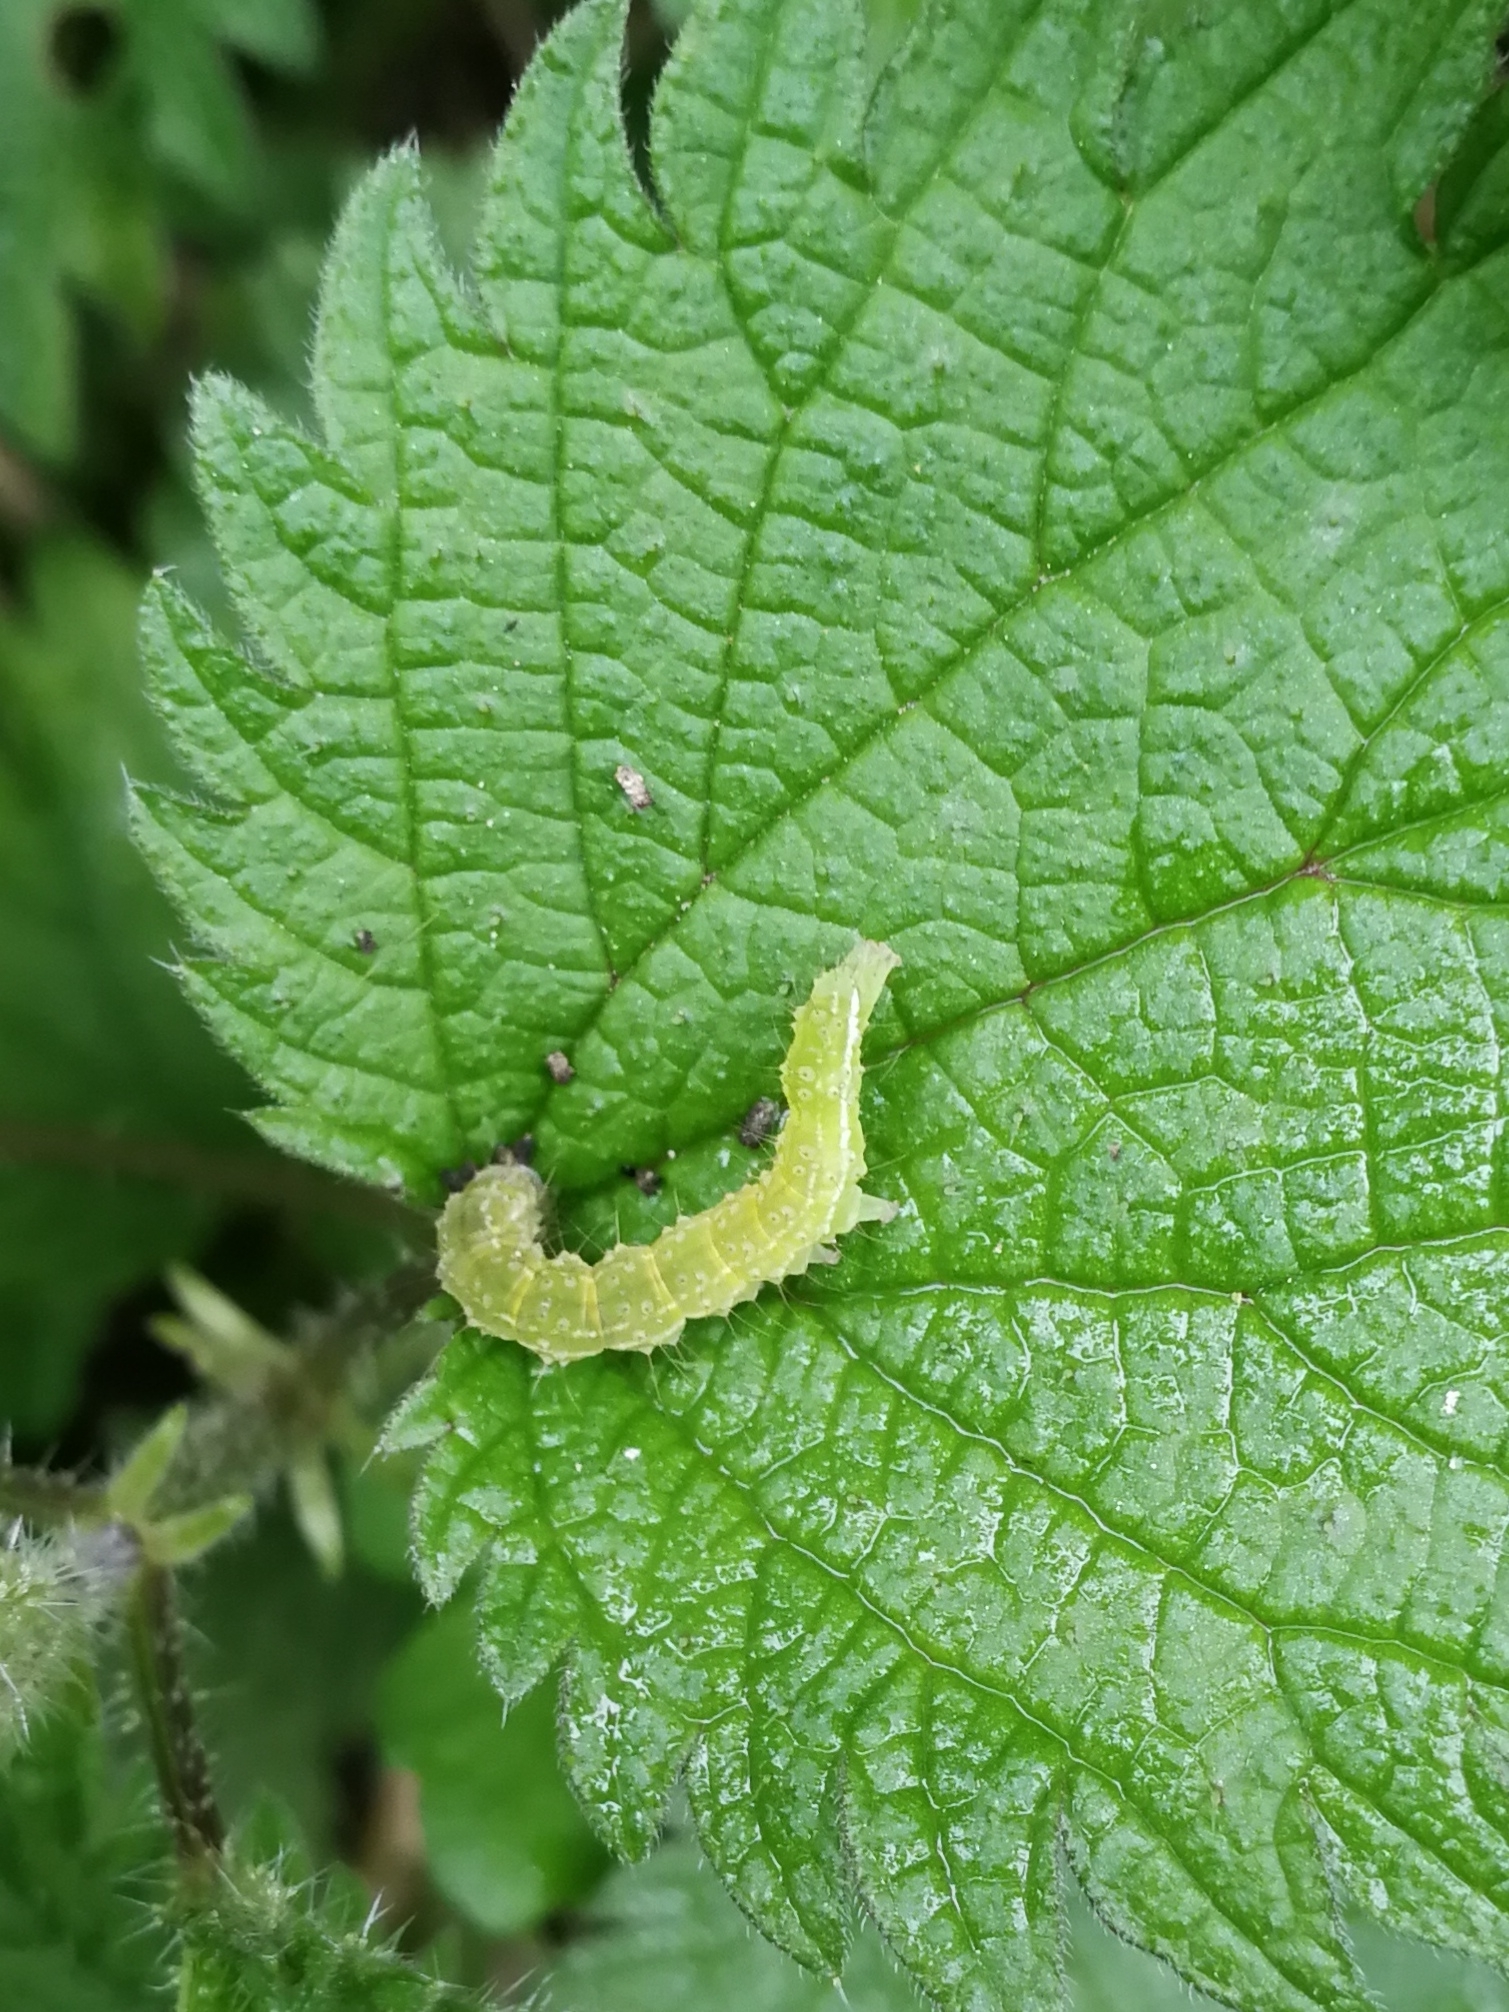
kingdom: Animalia
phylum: Arthropoda
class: Insecta
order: Lepidoptera
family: Erebidae
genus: Hypena
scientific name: Hypena proboscidalis
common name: Snout
